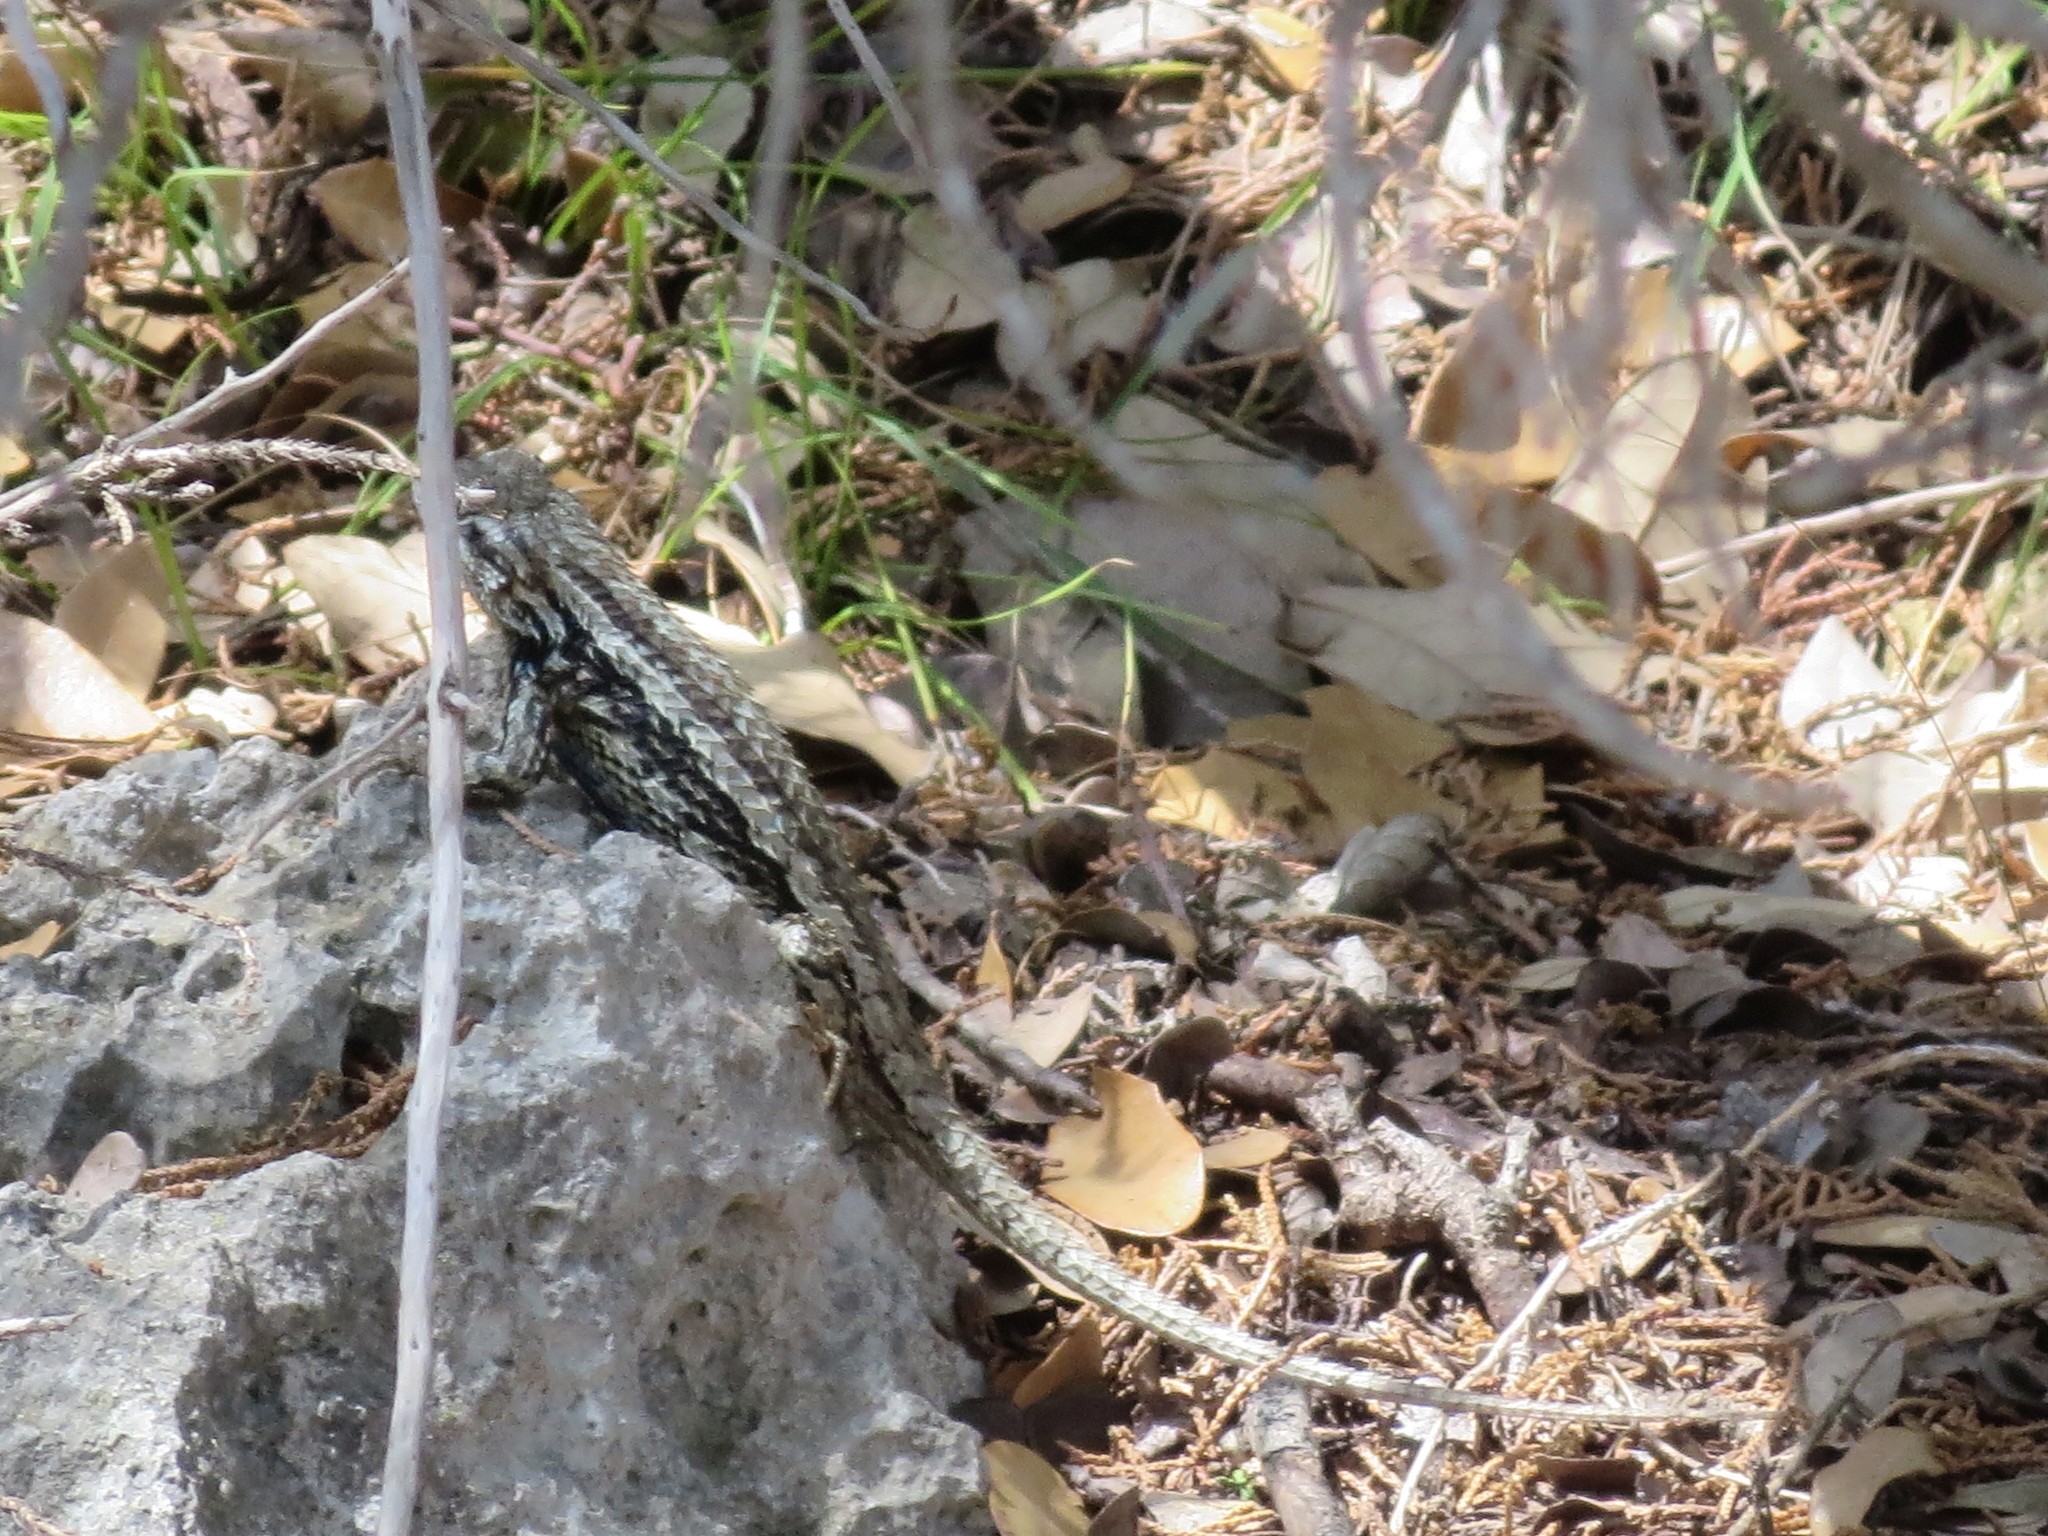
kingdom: Animalia
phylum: Chordata
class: Squamata
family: Phrynosomatidae
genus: Sceloporus
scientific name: Sceloporus olivaceus
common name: Texas spiny lizard
